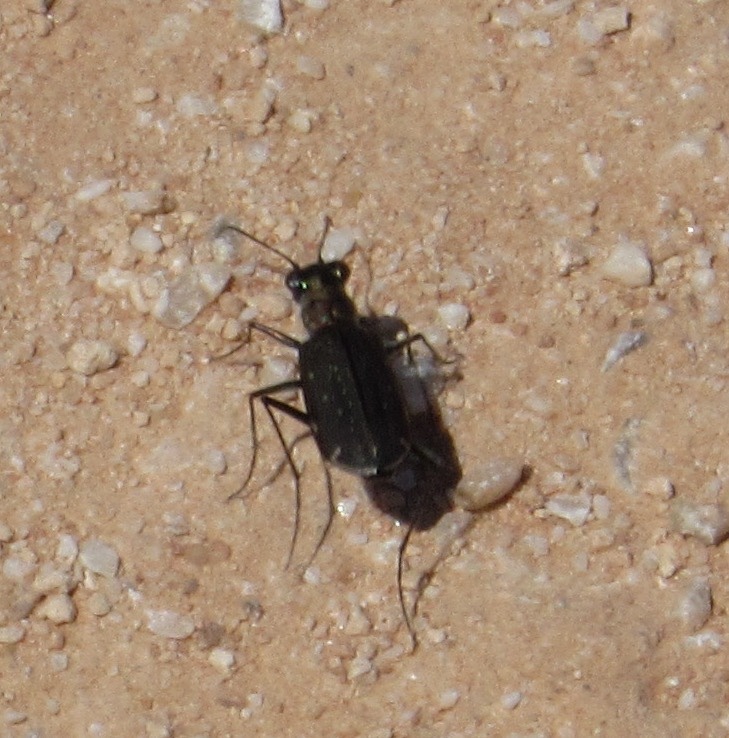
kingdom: Animalia
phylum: Arthropoda
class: Insecta
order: Coleoptera
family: Carabidae
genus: Cicindela
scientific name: Cicindela punctulata
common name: Punctured tiger beetle
